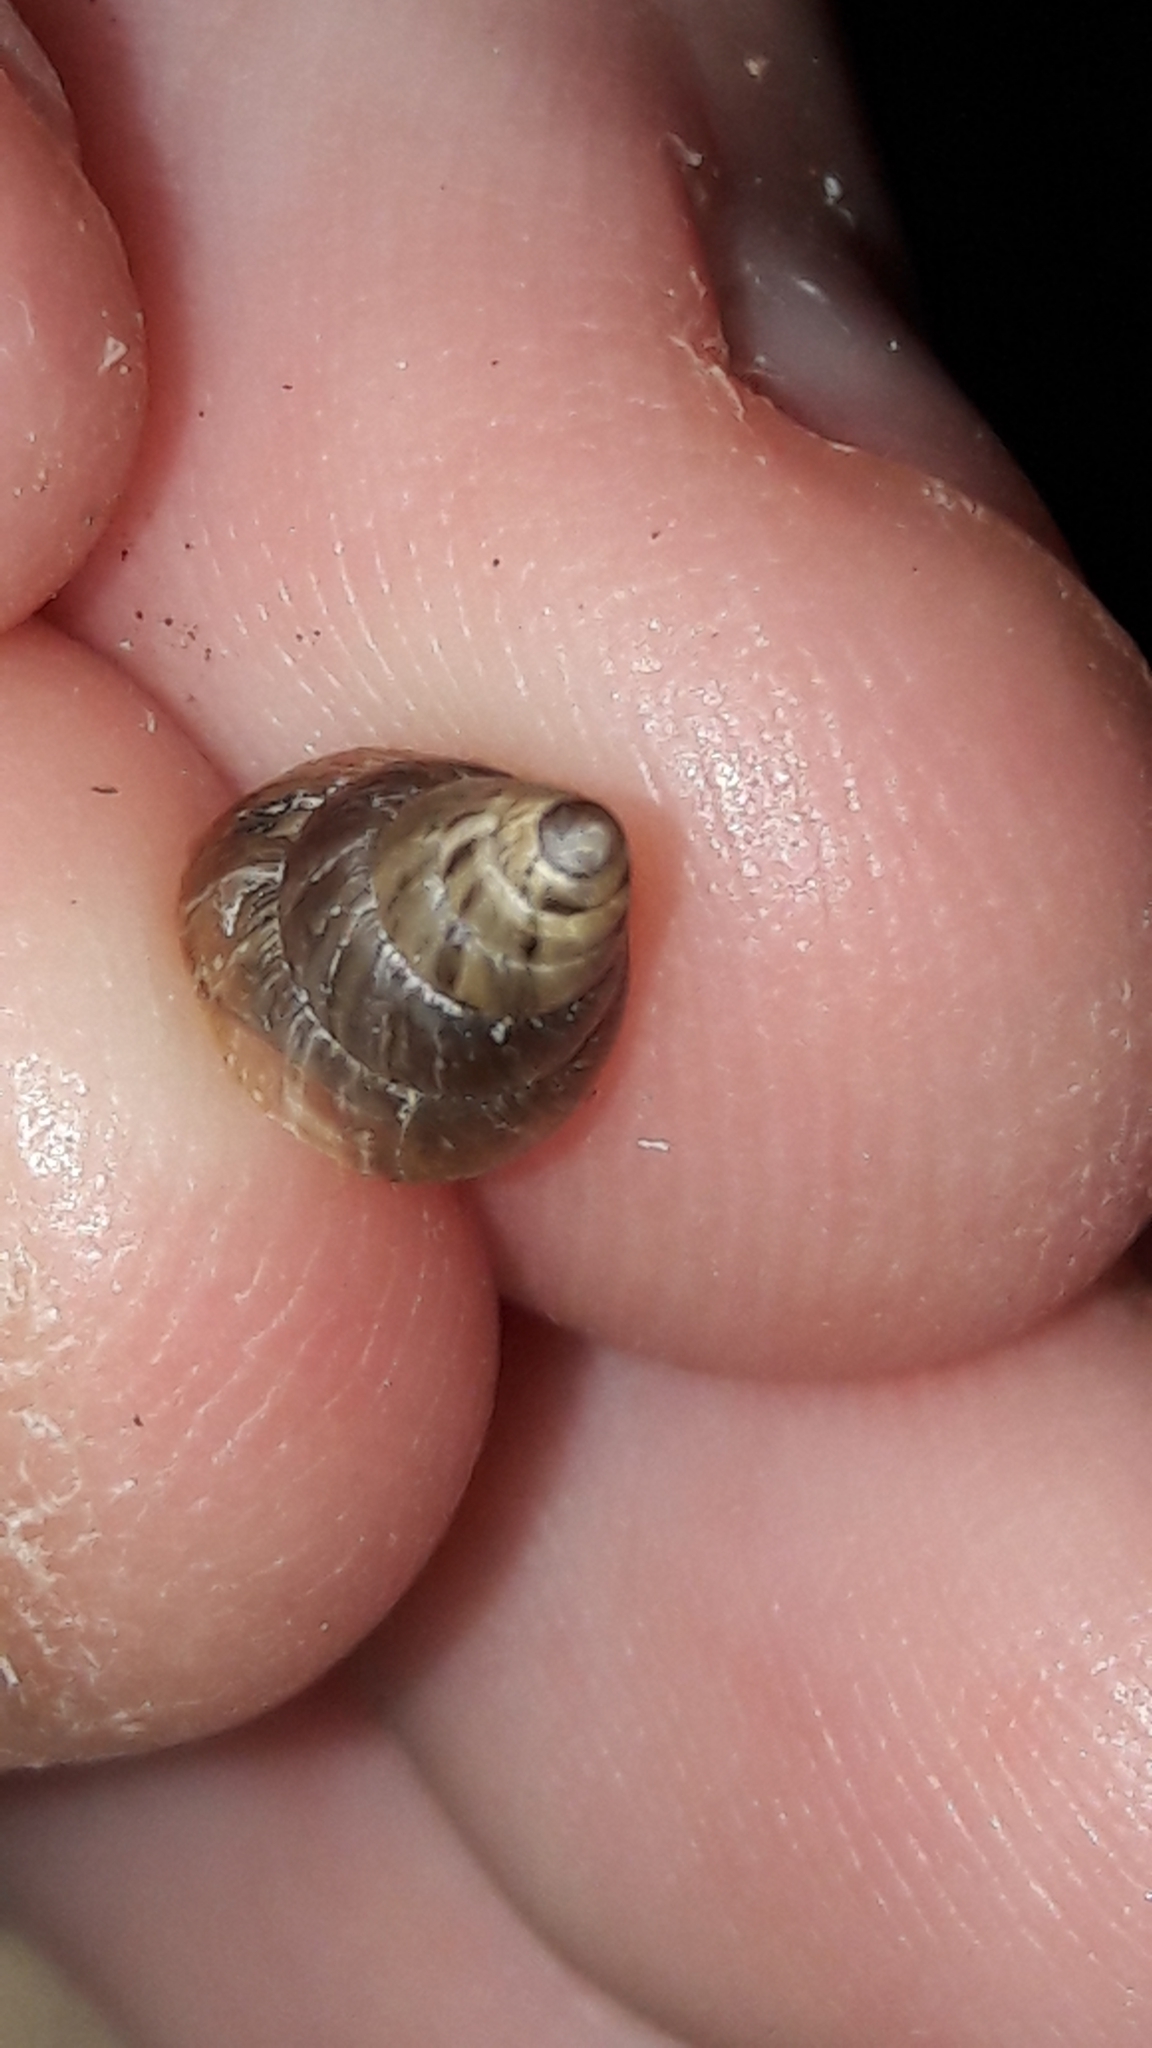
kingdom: Animalia
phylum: Mollusca
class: Gastropoda
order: Stylommatophora
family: Geomitridae
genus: Cochlicella
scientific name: Cochlicella barbara
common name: Potbellied helicellid
